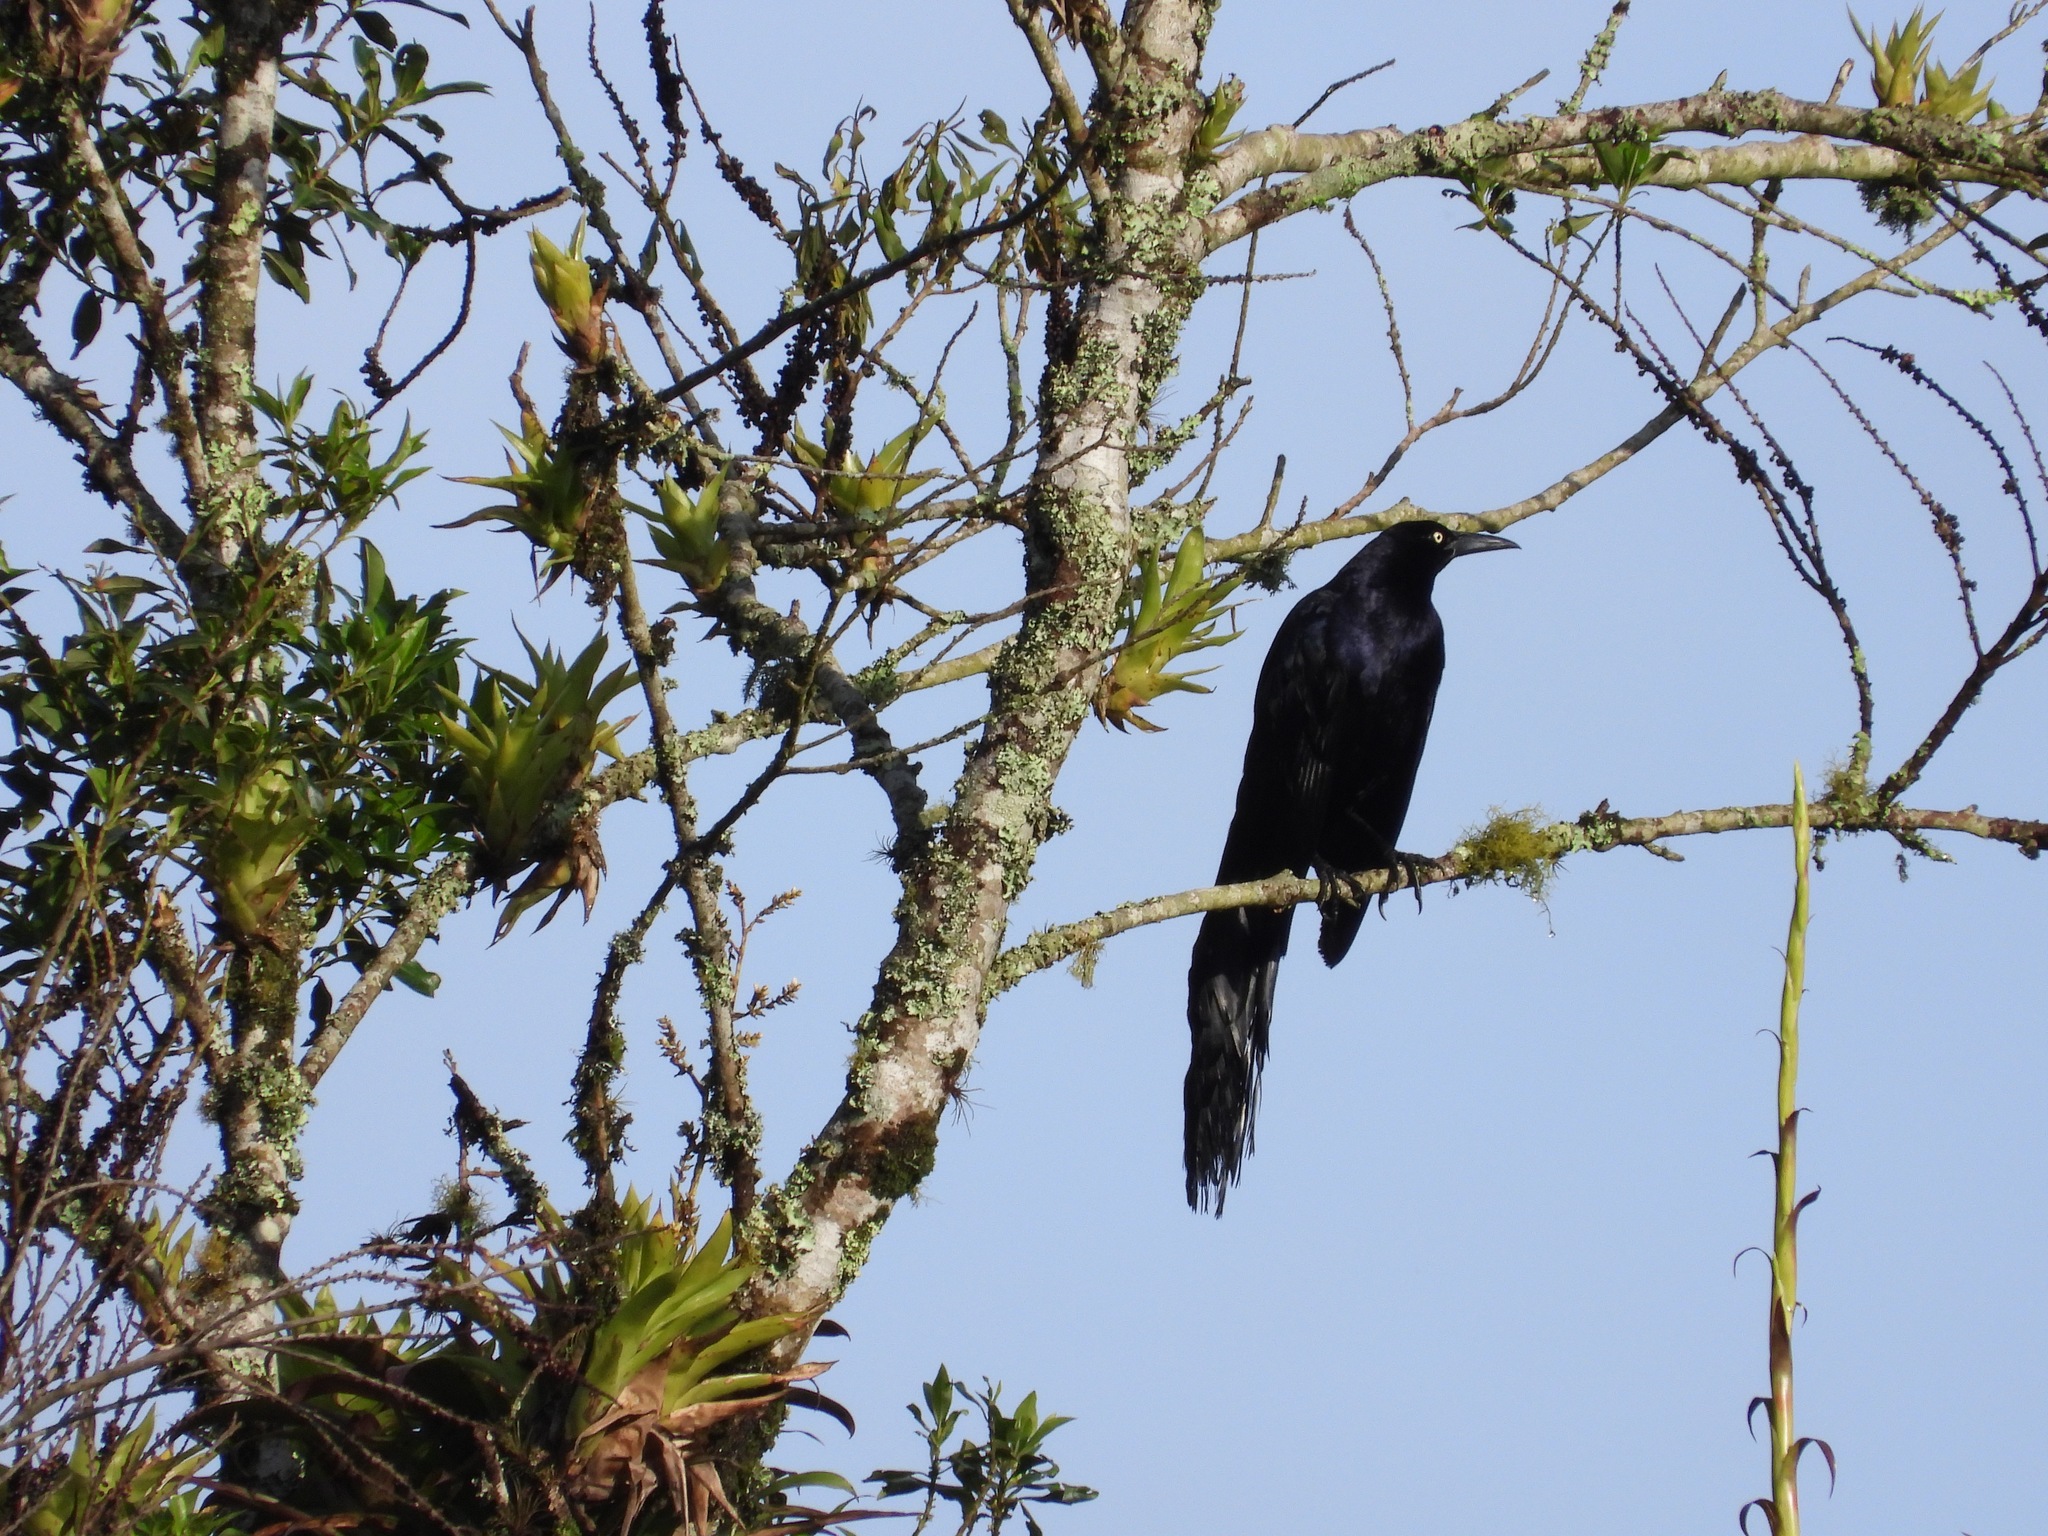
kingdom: Animalia
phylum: Chordata
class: Aves
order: Passeriformes
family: Icteridae
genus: Quiscalus
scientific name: Quiscalus mexicanus
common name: Great-tailed grackle
